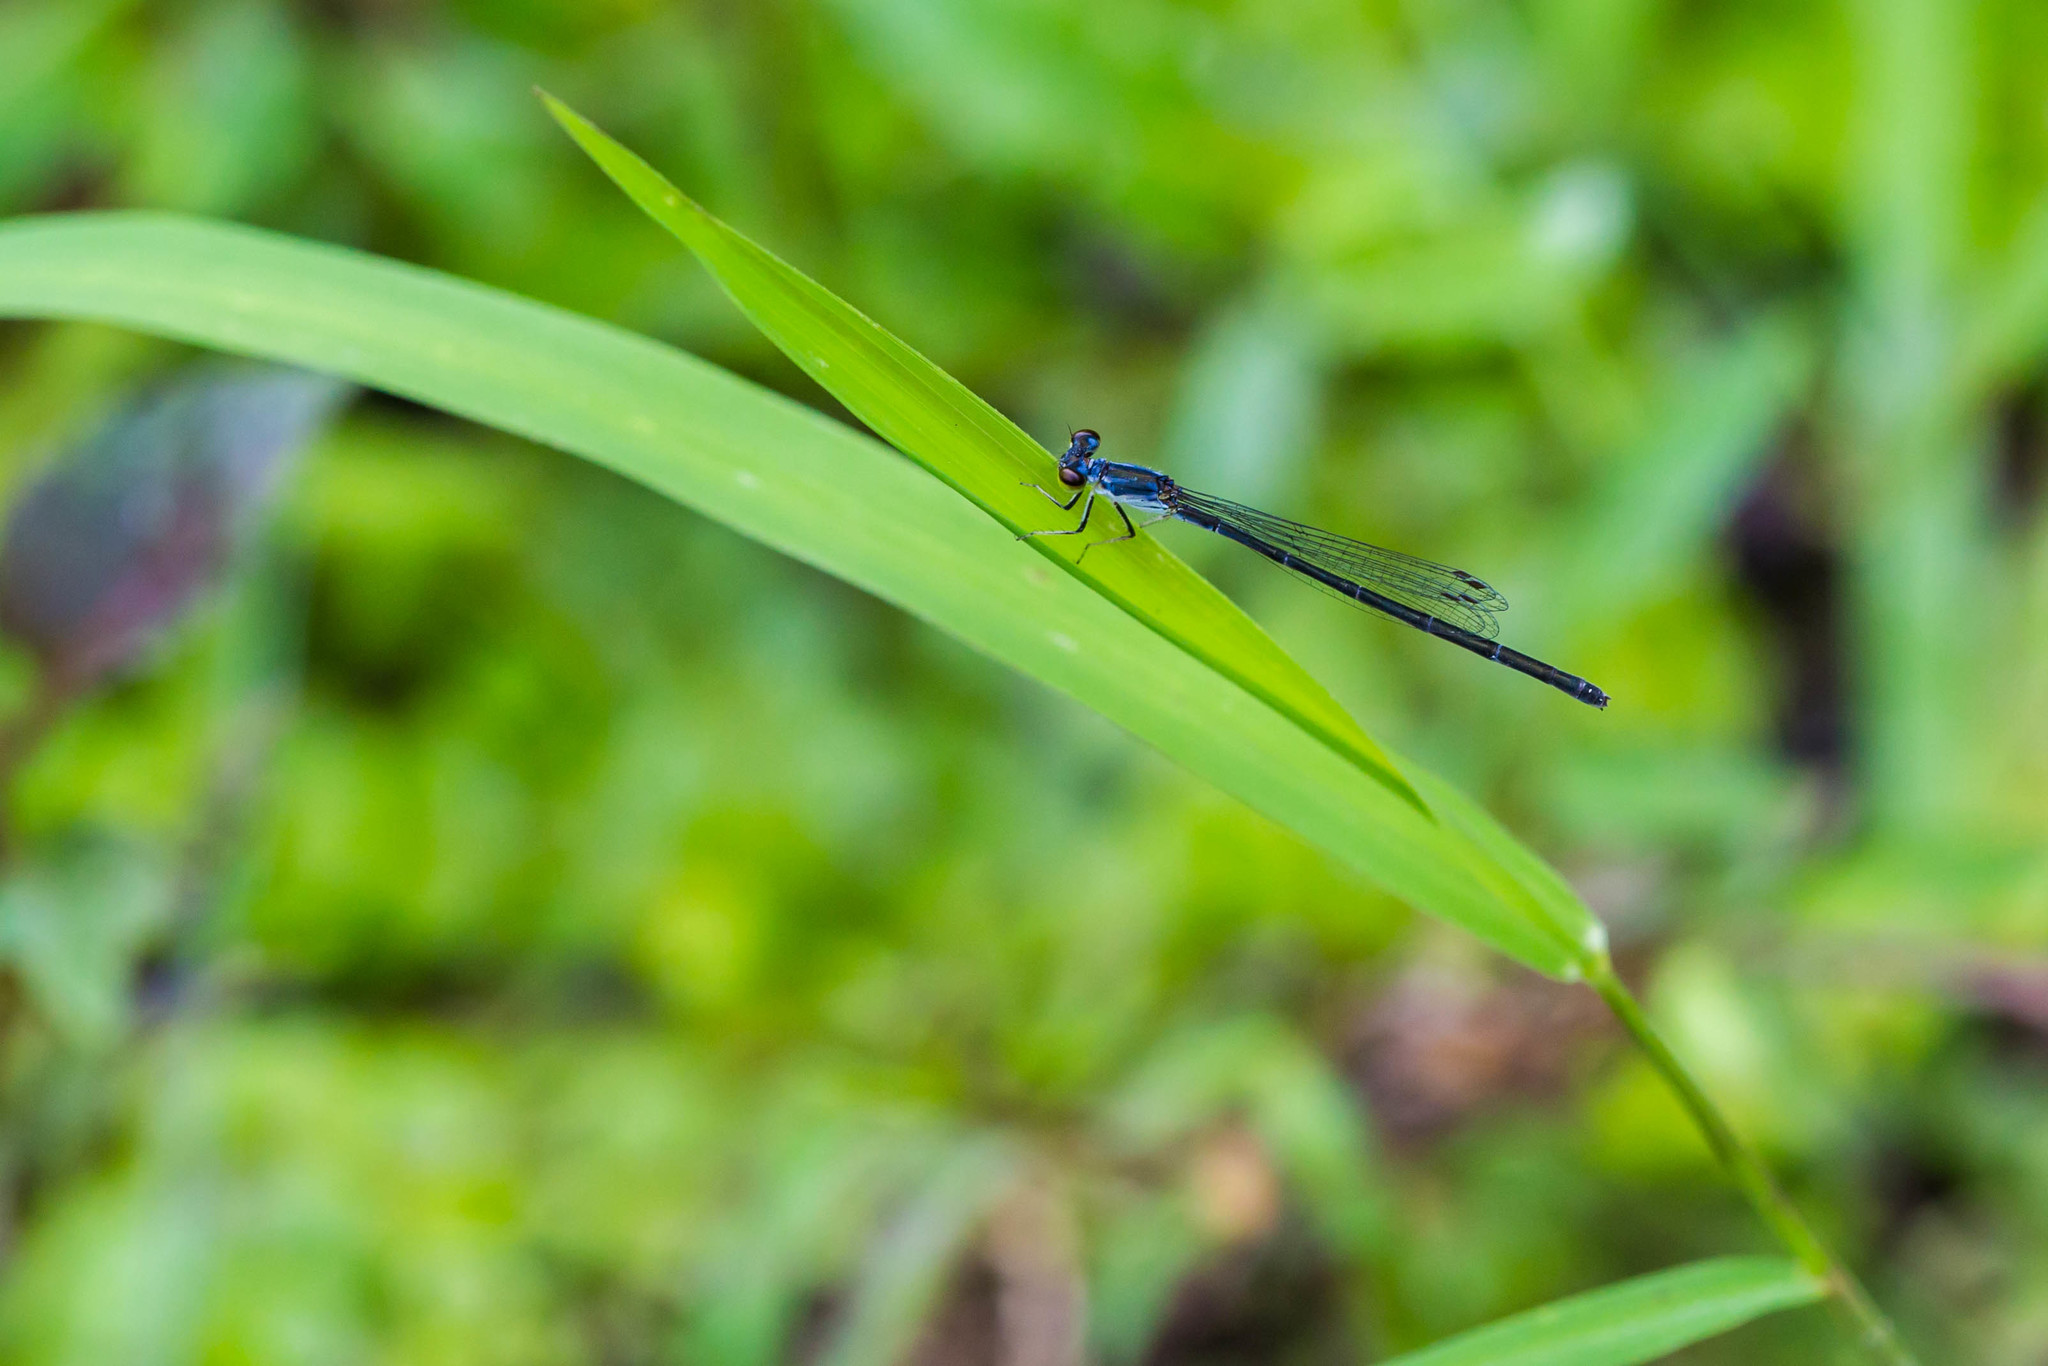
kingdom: Animalia
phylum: Arthropoda
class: Insecta
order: Odonata
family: Coenagrionidae
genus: Ischnura
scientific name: Ischnura posita
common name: Fragile forktail
